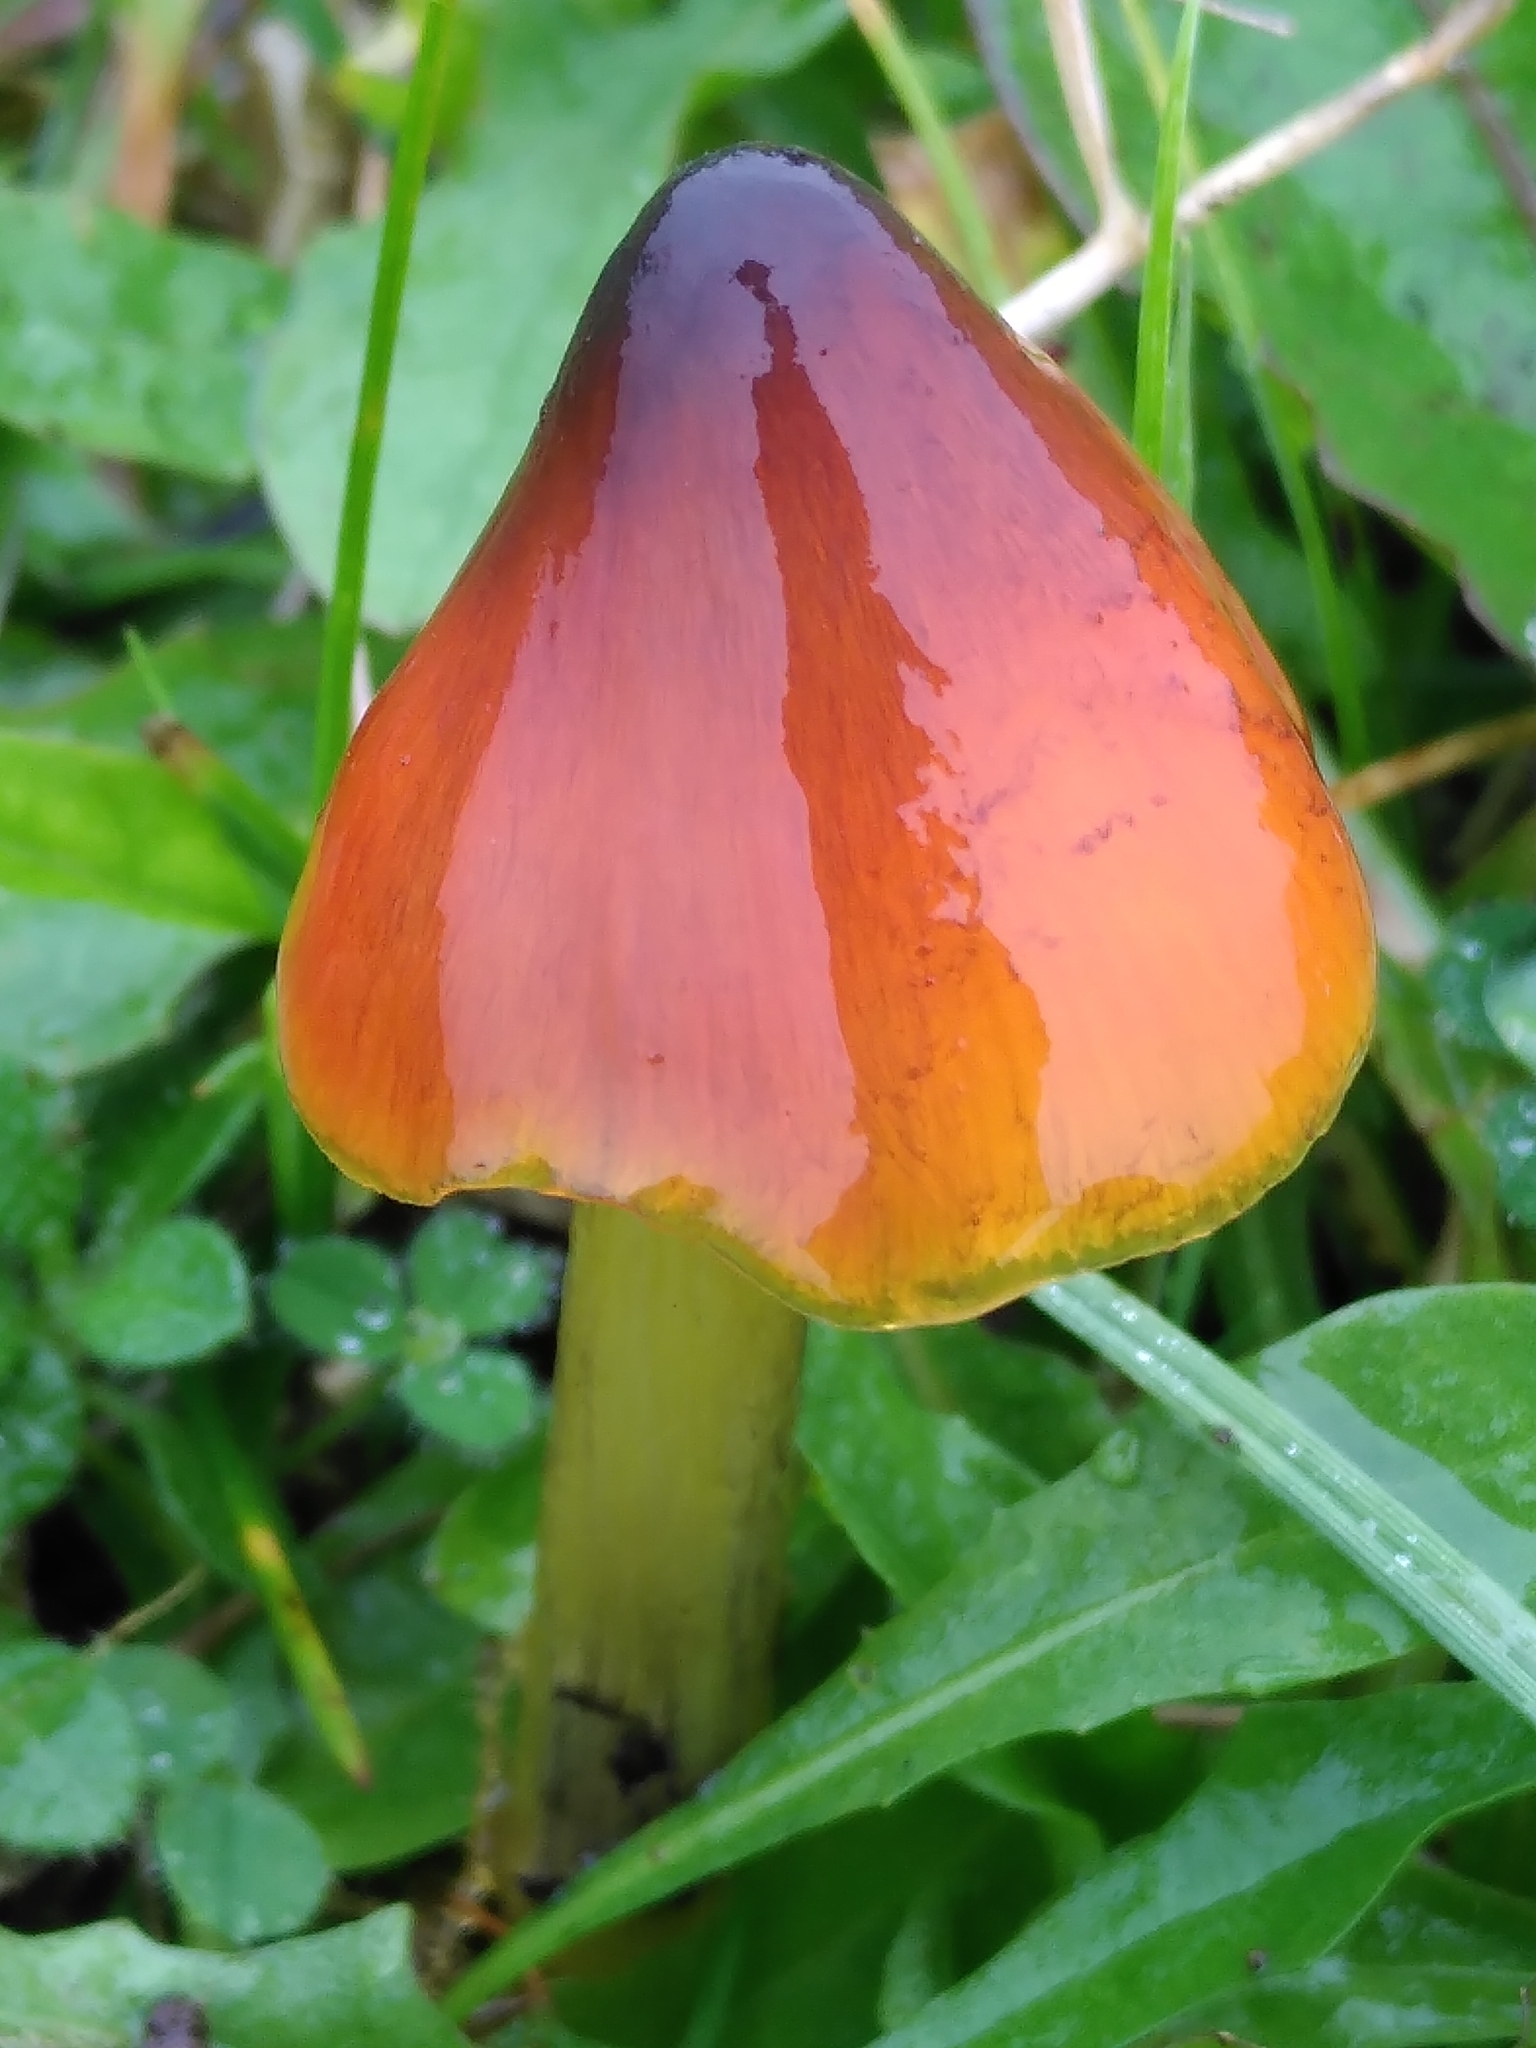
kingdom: Fungi
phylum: Basidiomycota
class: Agaricomycetes
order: Agaricales
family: Hygrophoraceae
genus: Hygrocybe
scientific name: Hygrocybe conica
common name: Blackening wax-cap
